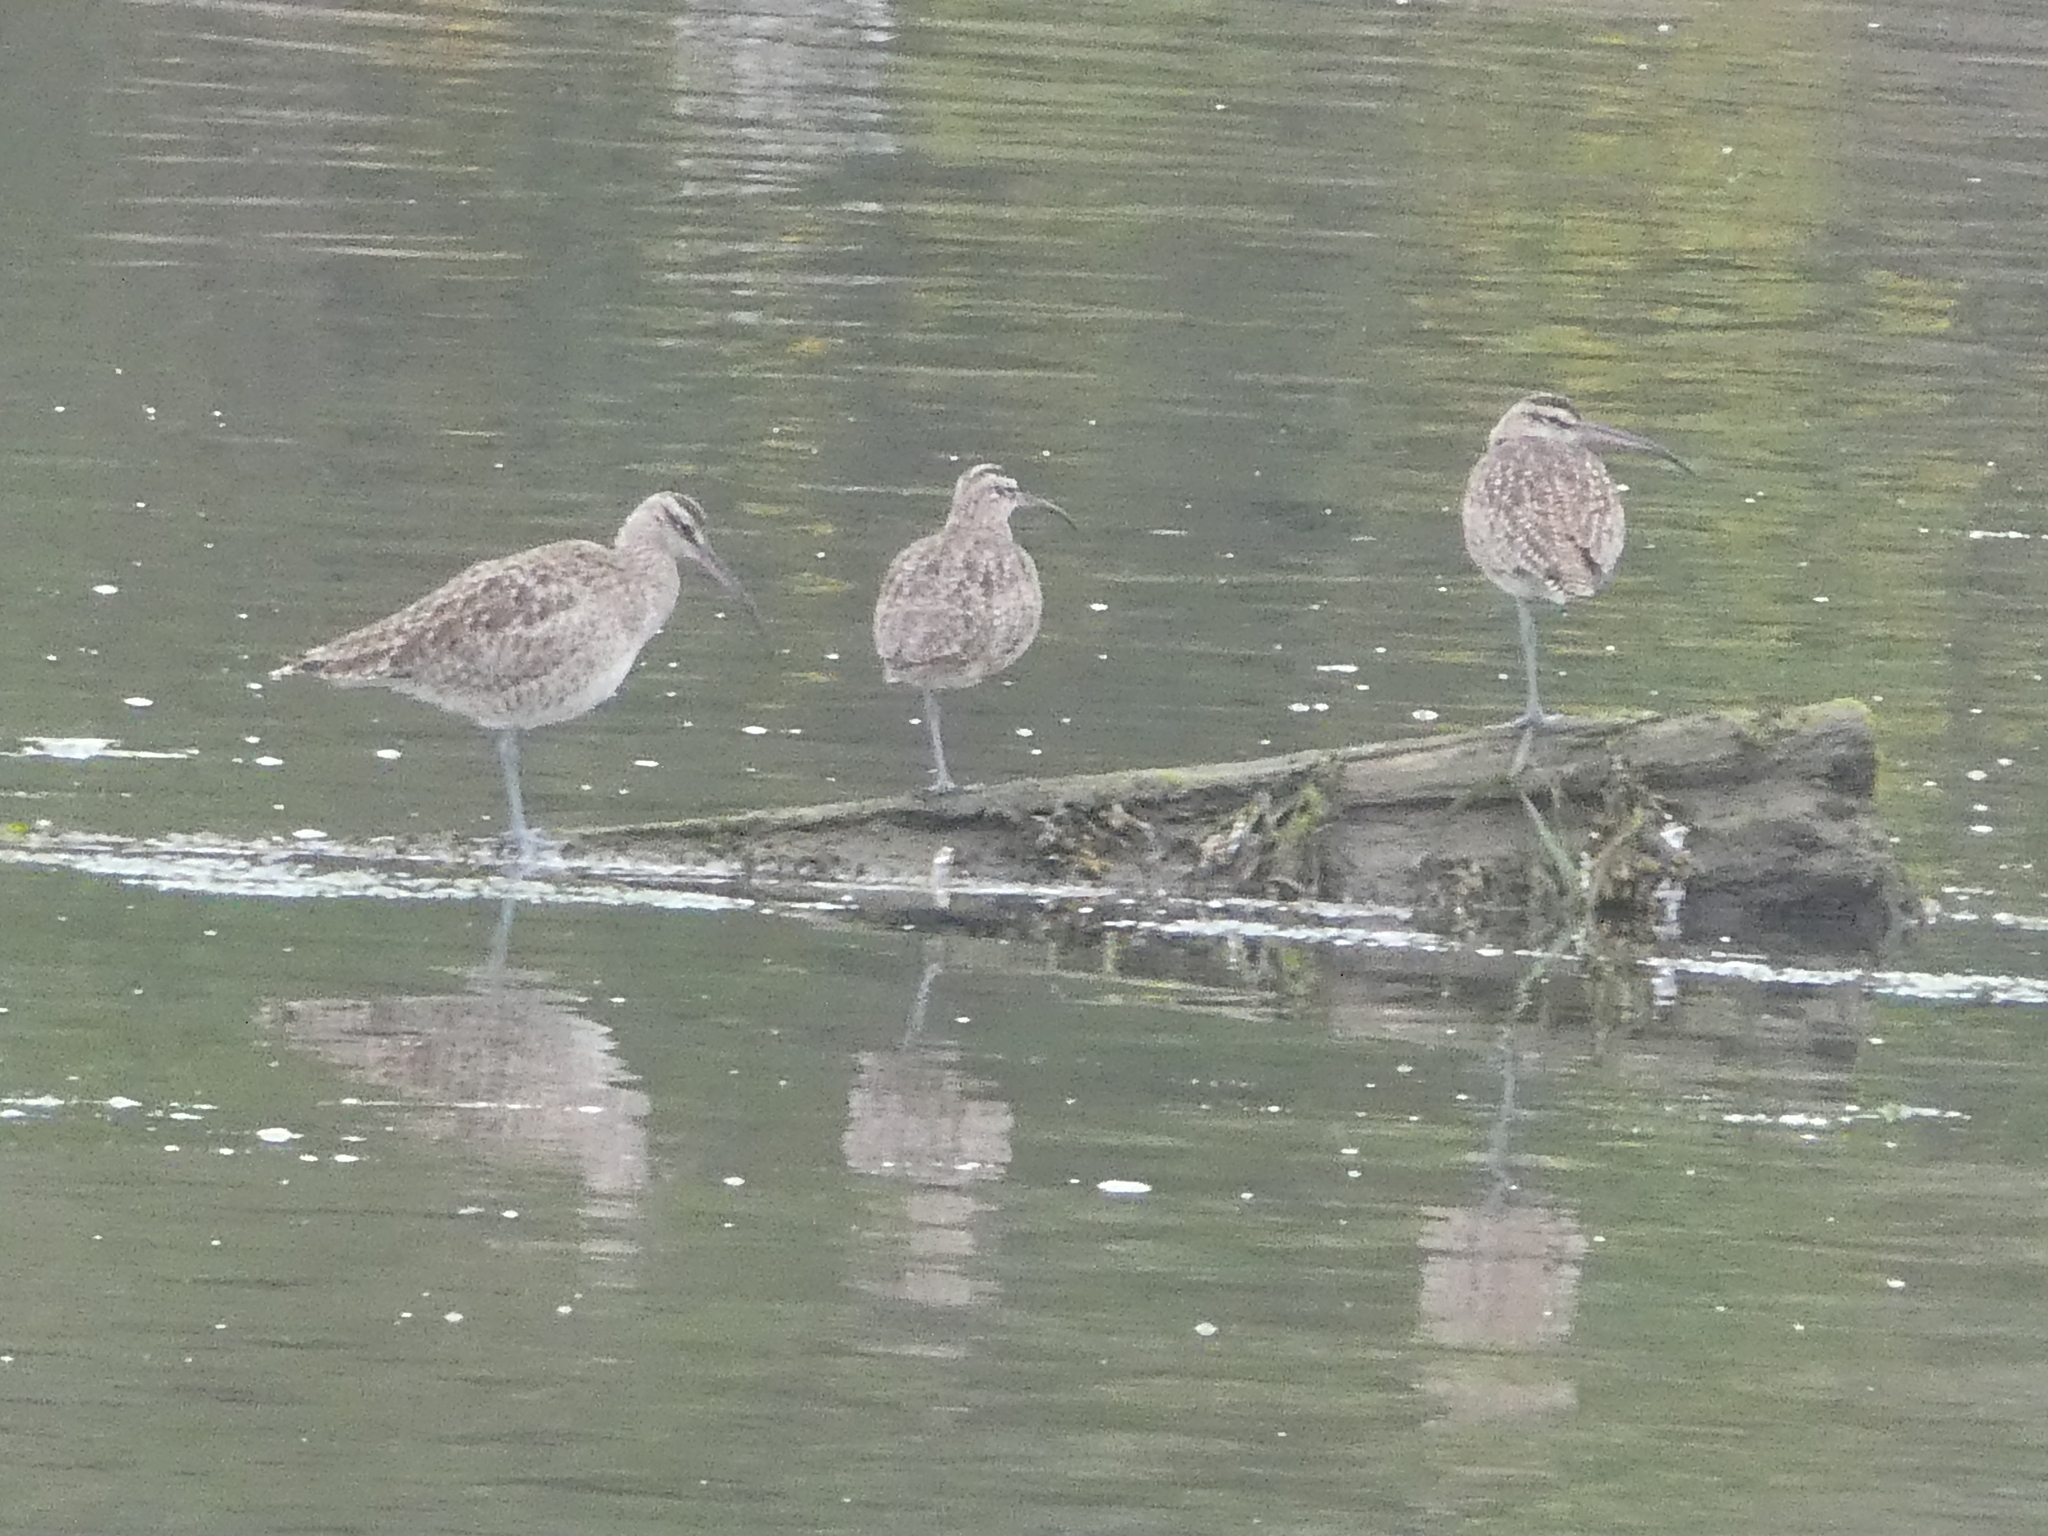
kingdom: Animalia
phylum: Chordata
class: Aves
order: Charadriiformes
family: Scolopacidae
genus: Numenius
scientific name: Numenius phaeopus
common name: Whimbrel
